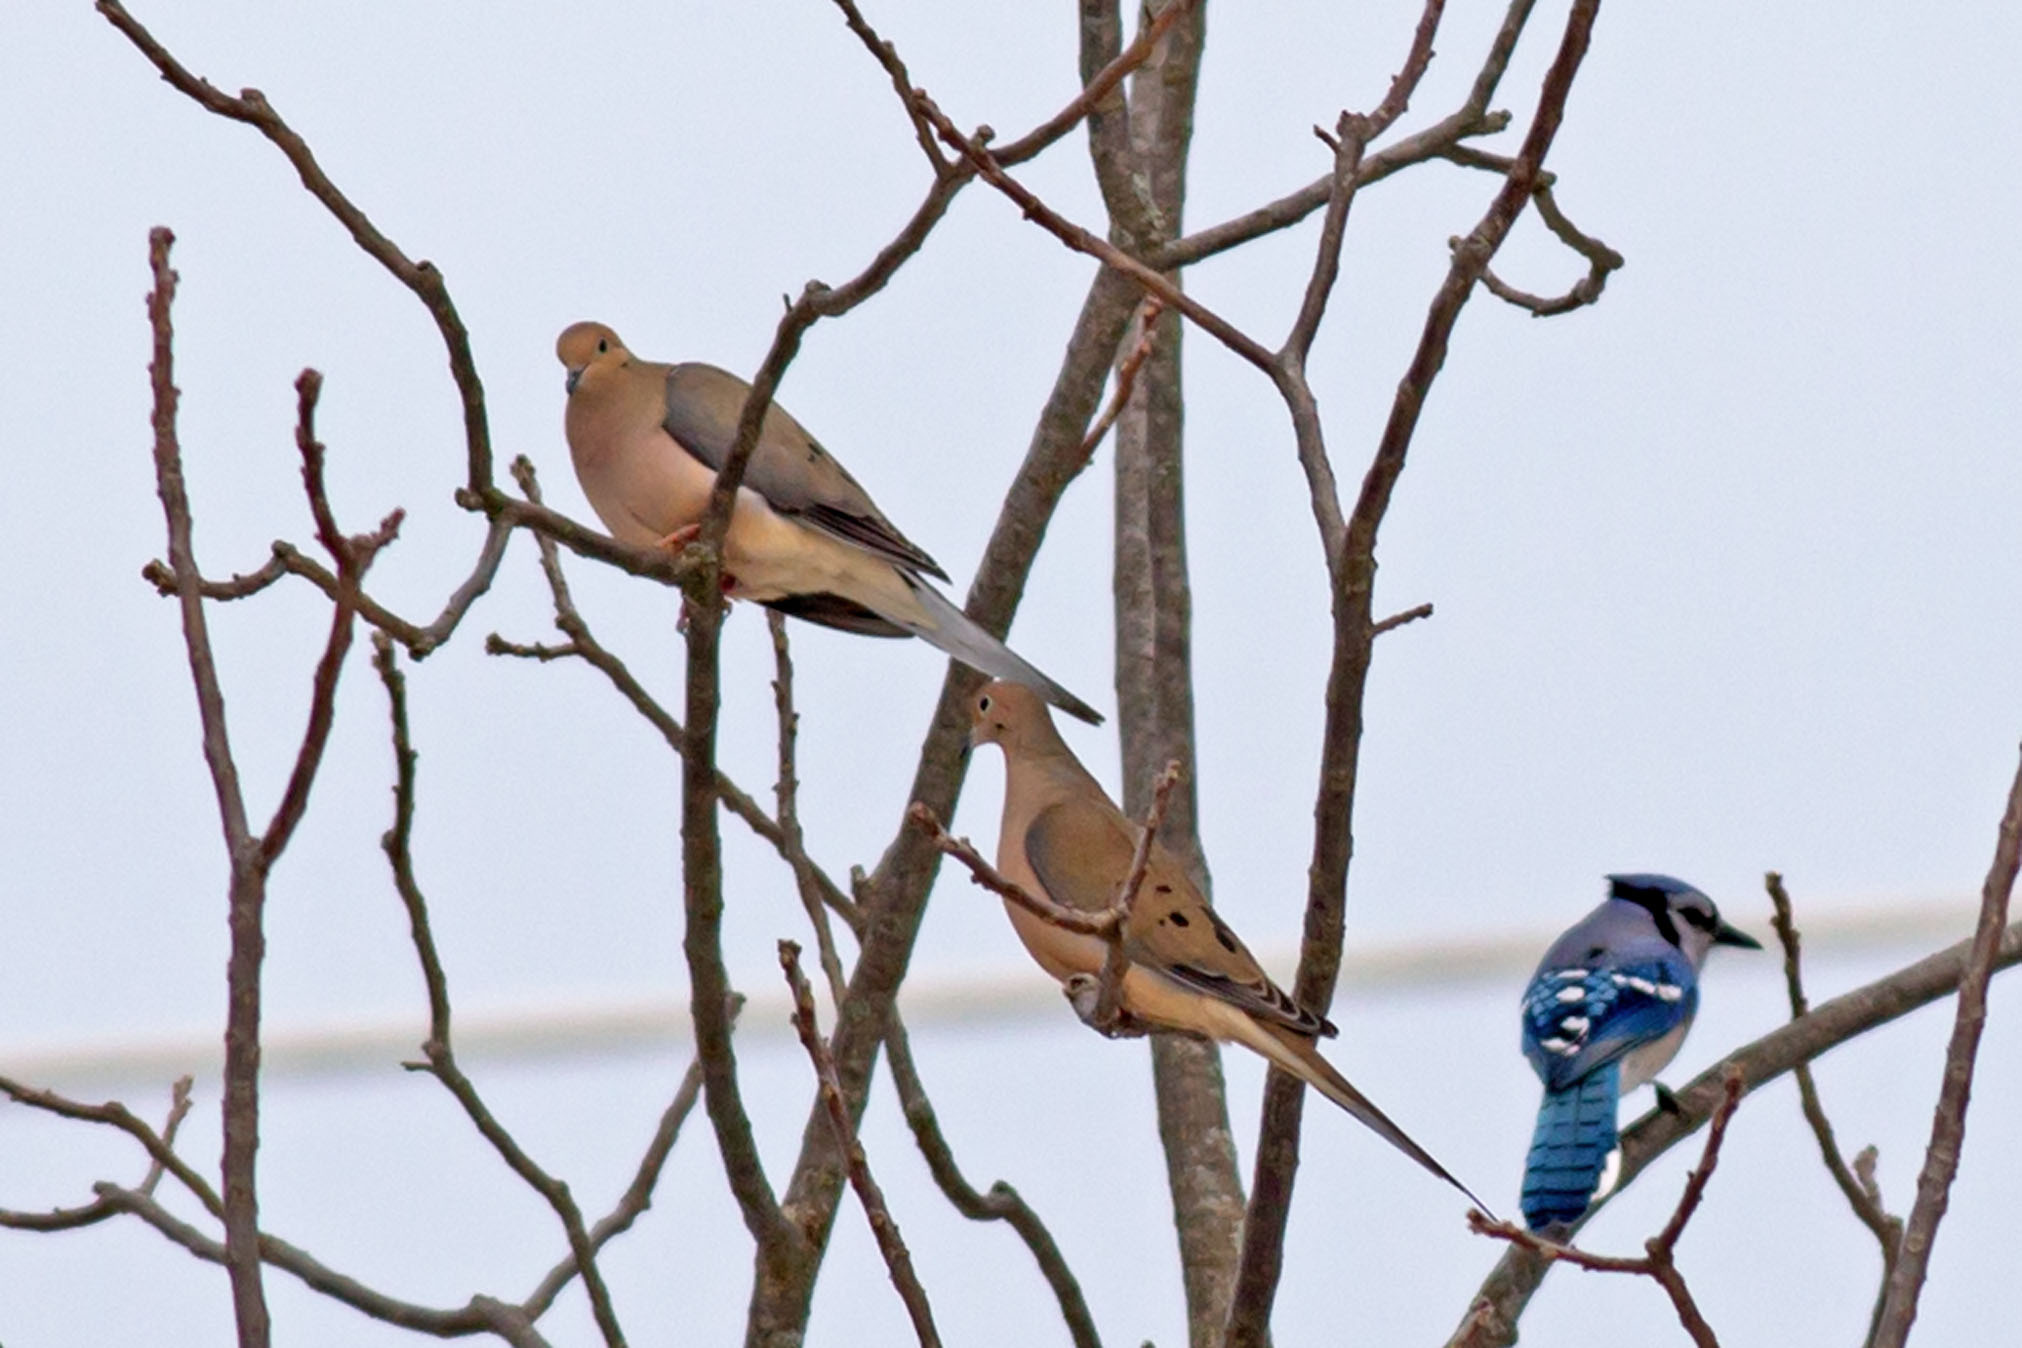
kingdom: Animalia
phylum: Chordata
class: Aves
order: Columbiformes
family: Columbidae
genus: Zenaida
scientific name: Zenaida macroura
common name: Mourning dove
